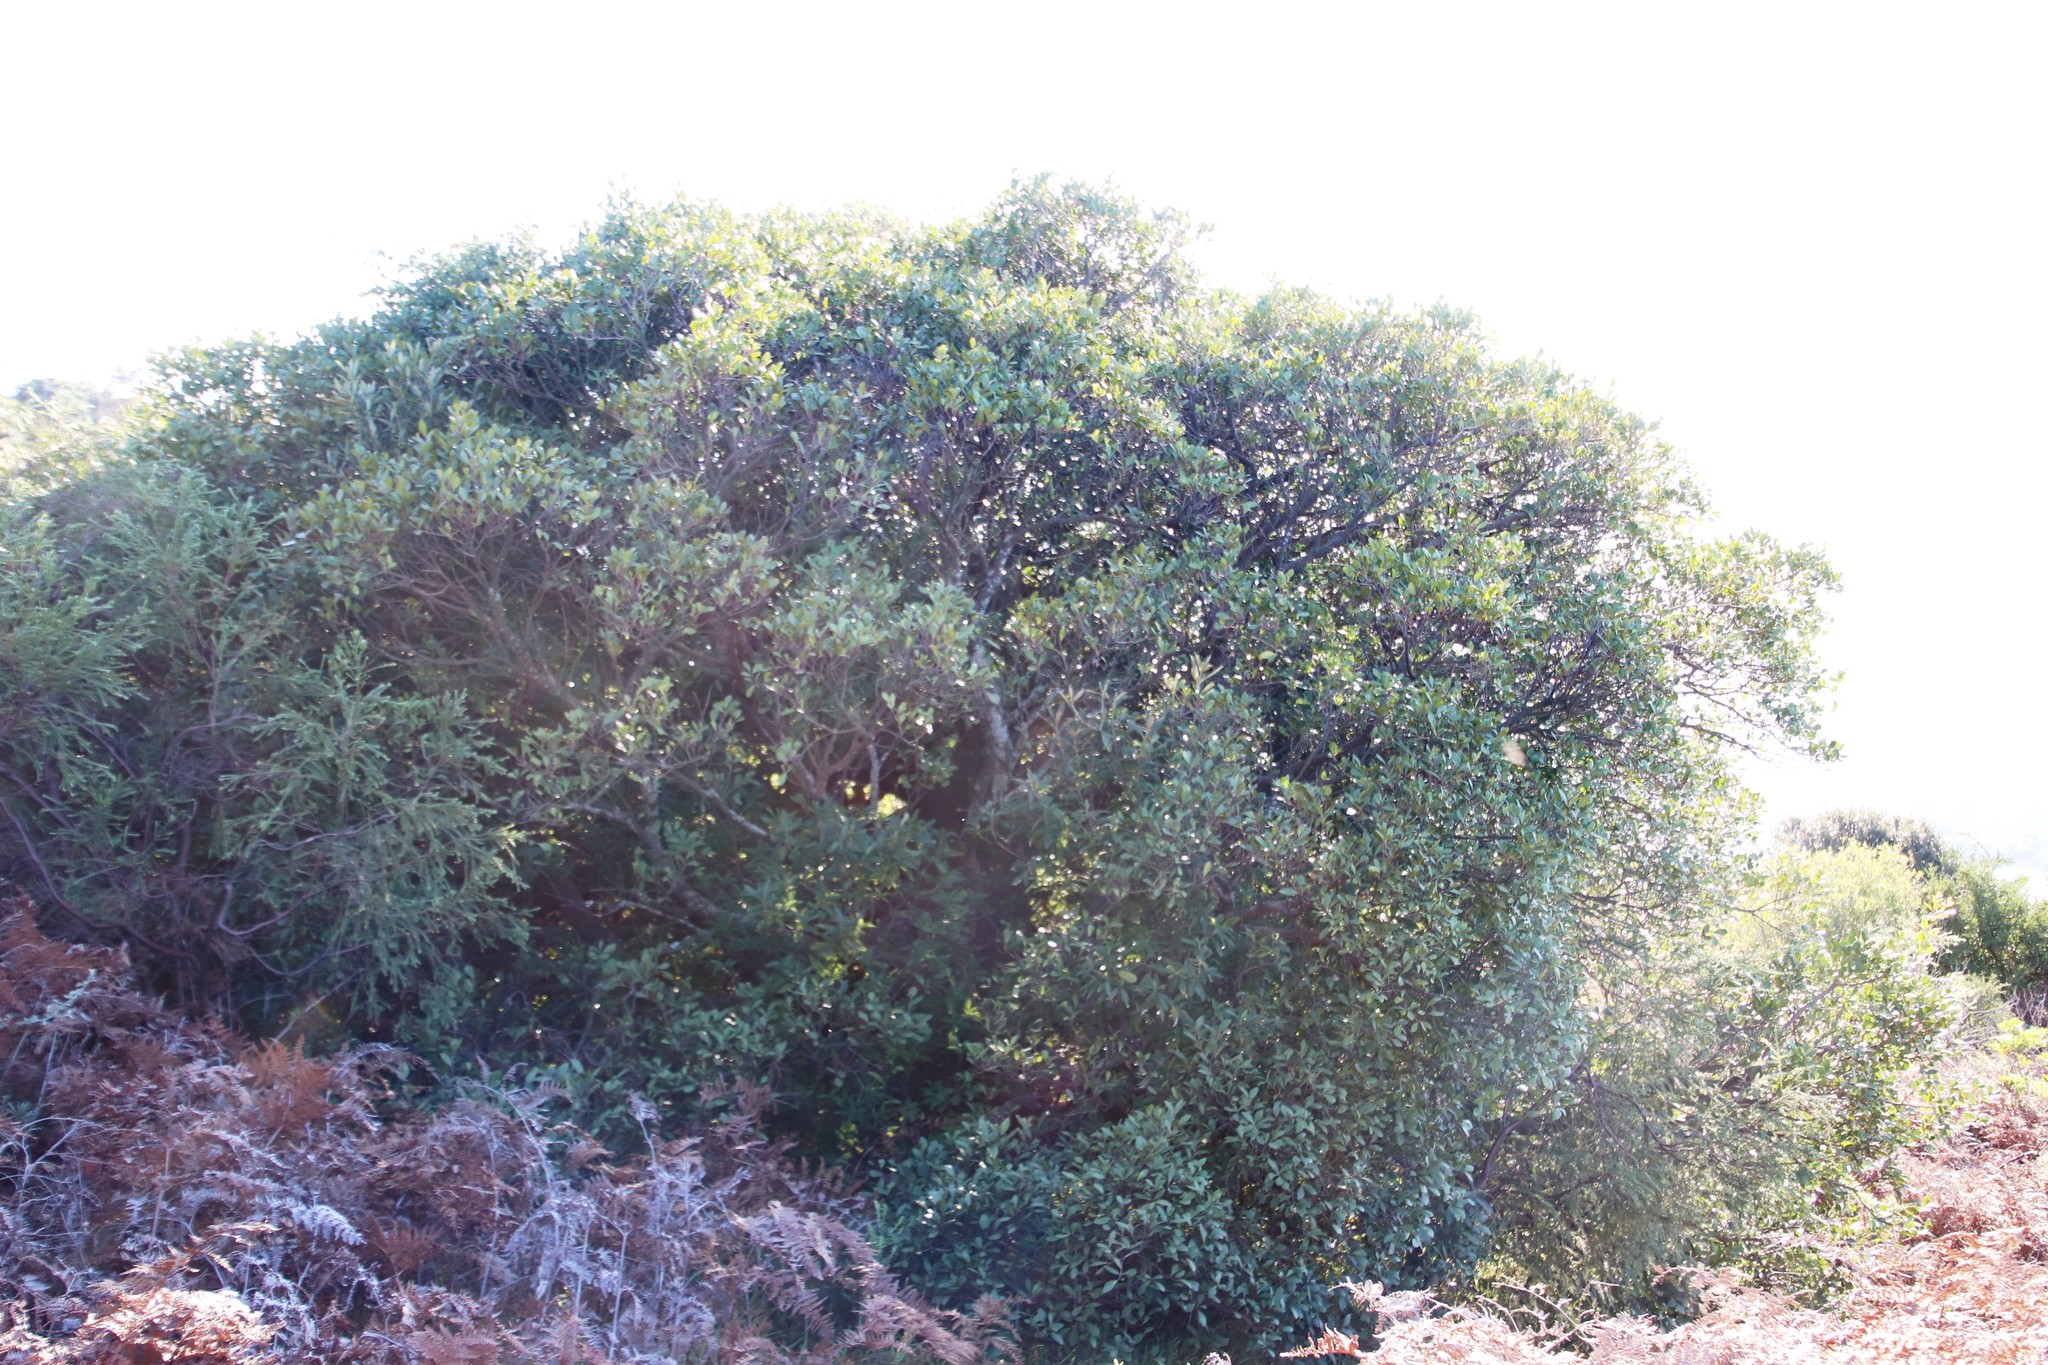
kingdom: Plantae
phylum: Tracheophyta
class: Magnoliopsida
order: Celastrales
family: Celastraceae
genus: Gymnosporia
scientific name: Gymnosporia laurina
